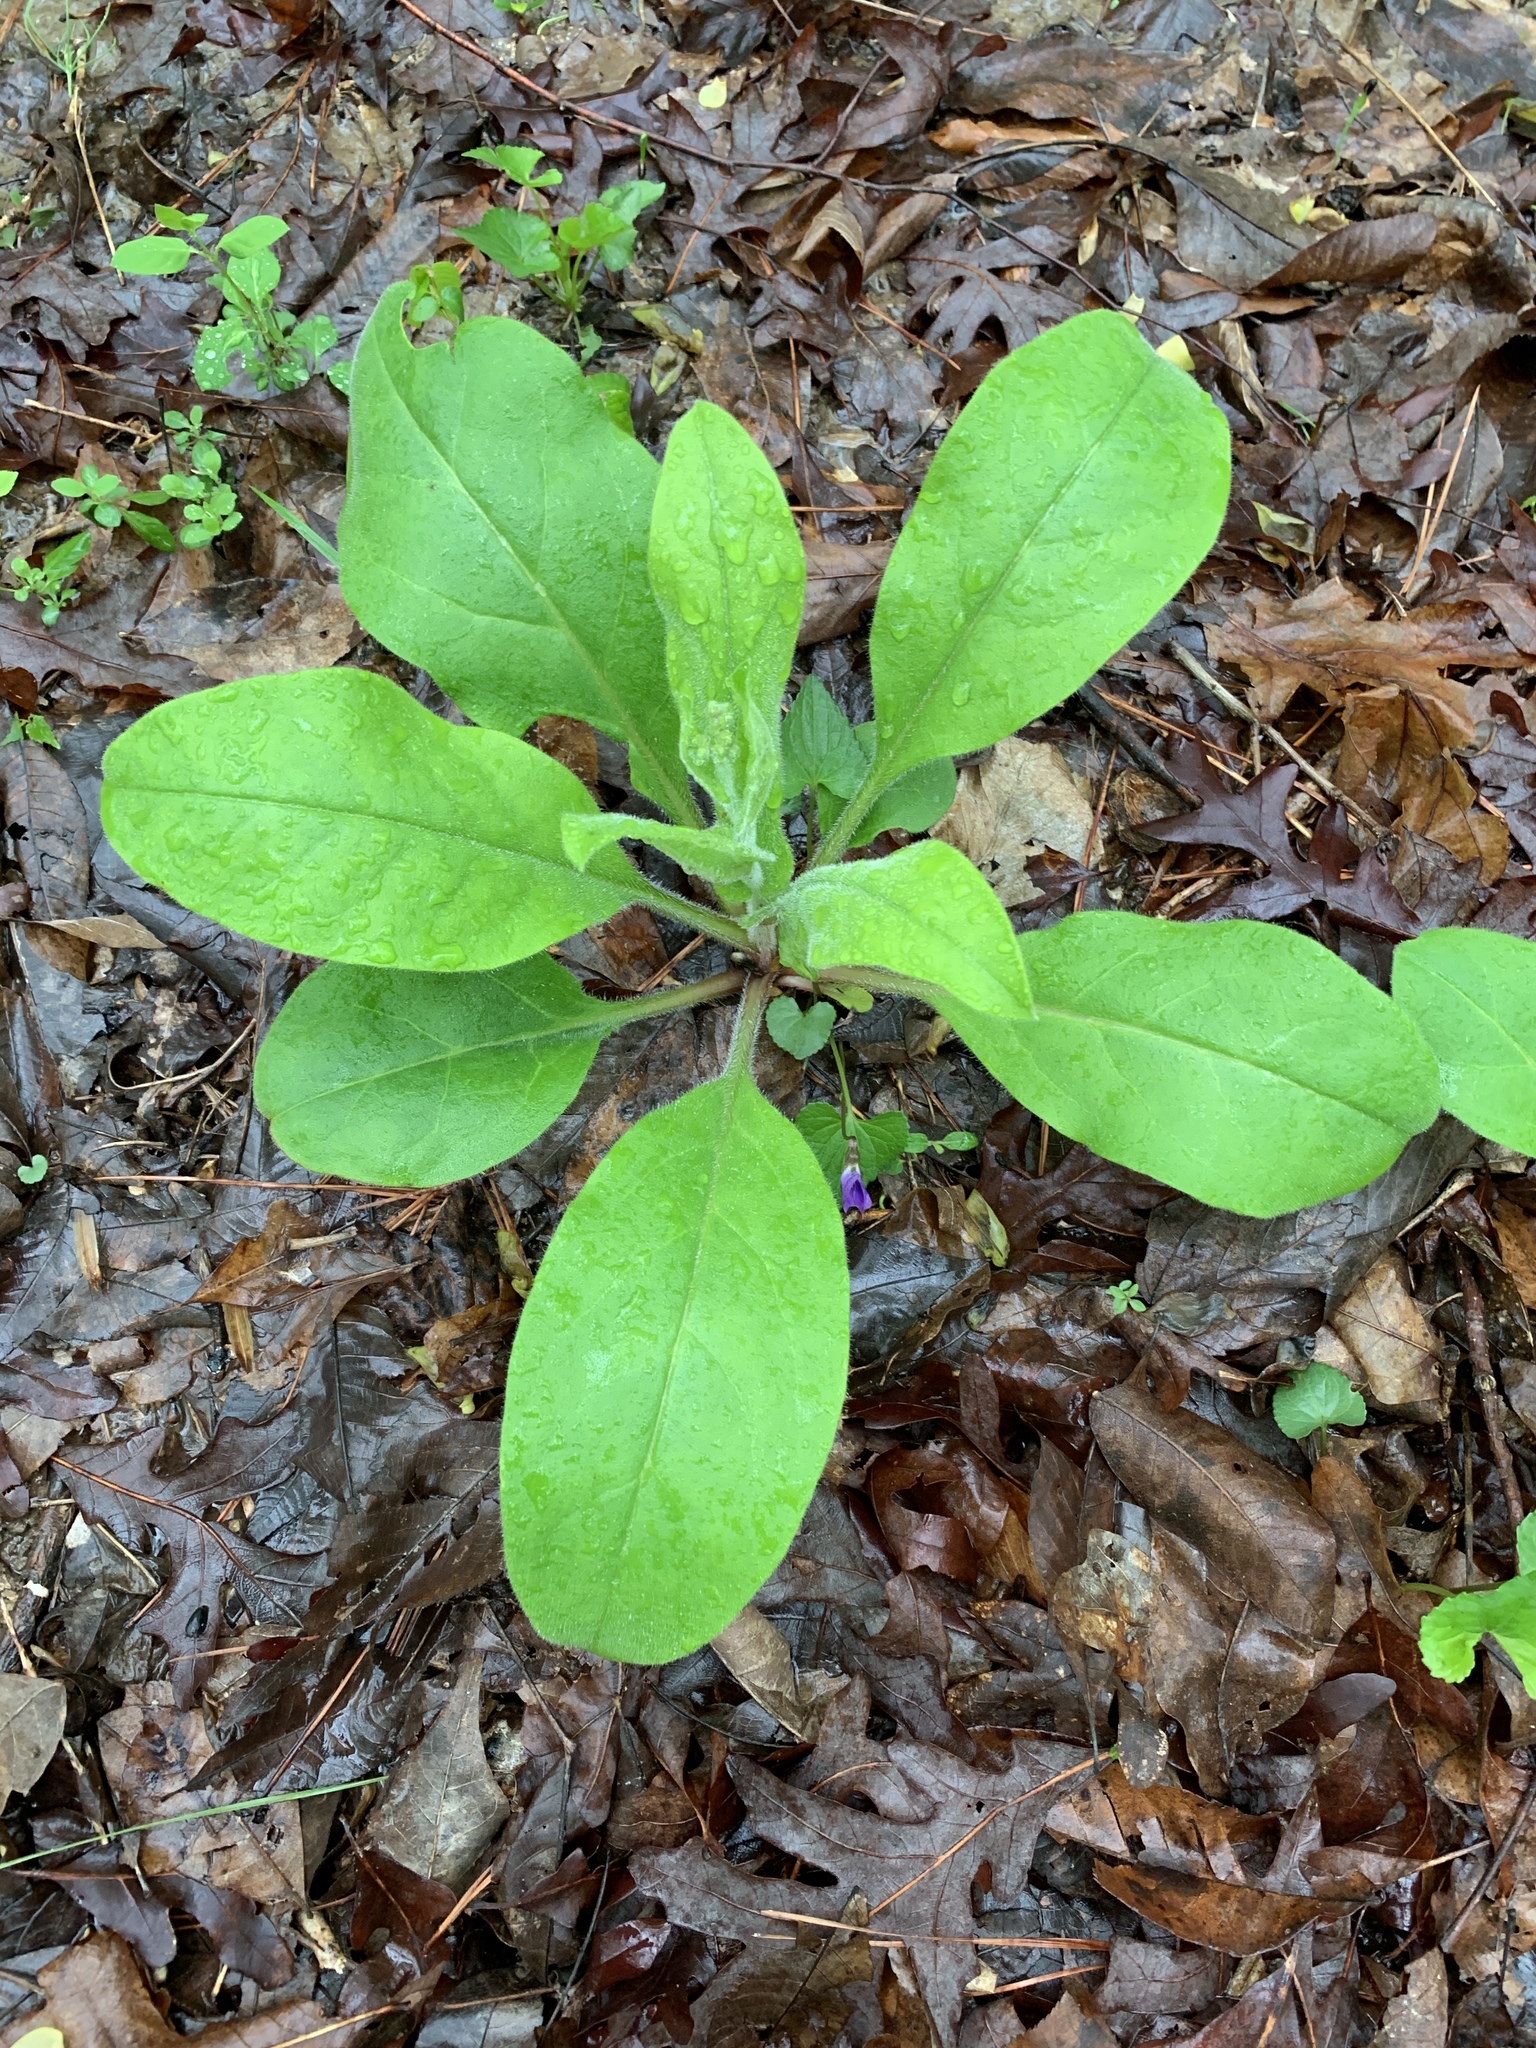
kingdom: Plantae
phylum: Tracheophyta
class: Magnoliopsida
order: Boraginales
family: Boraginaceae
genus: Andersonglossum
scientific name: Andersonglossum virginianum
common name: Wild comfrey
